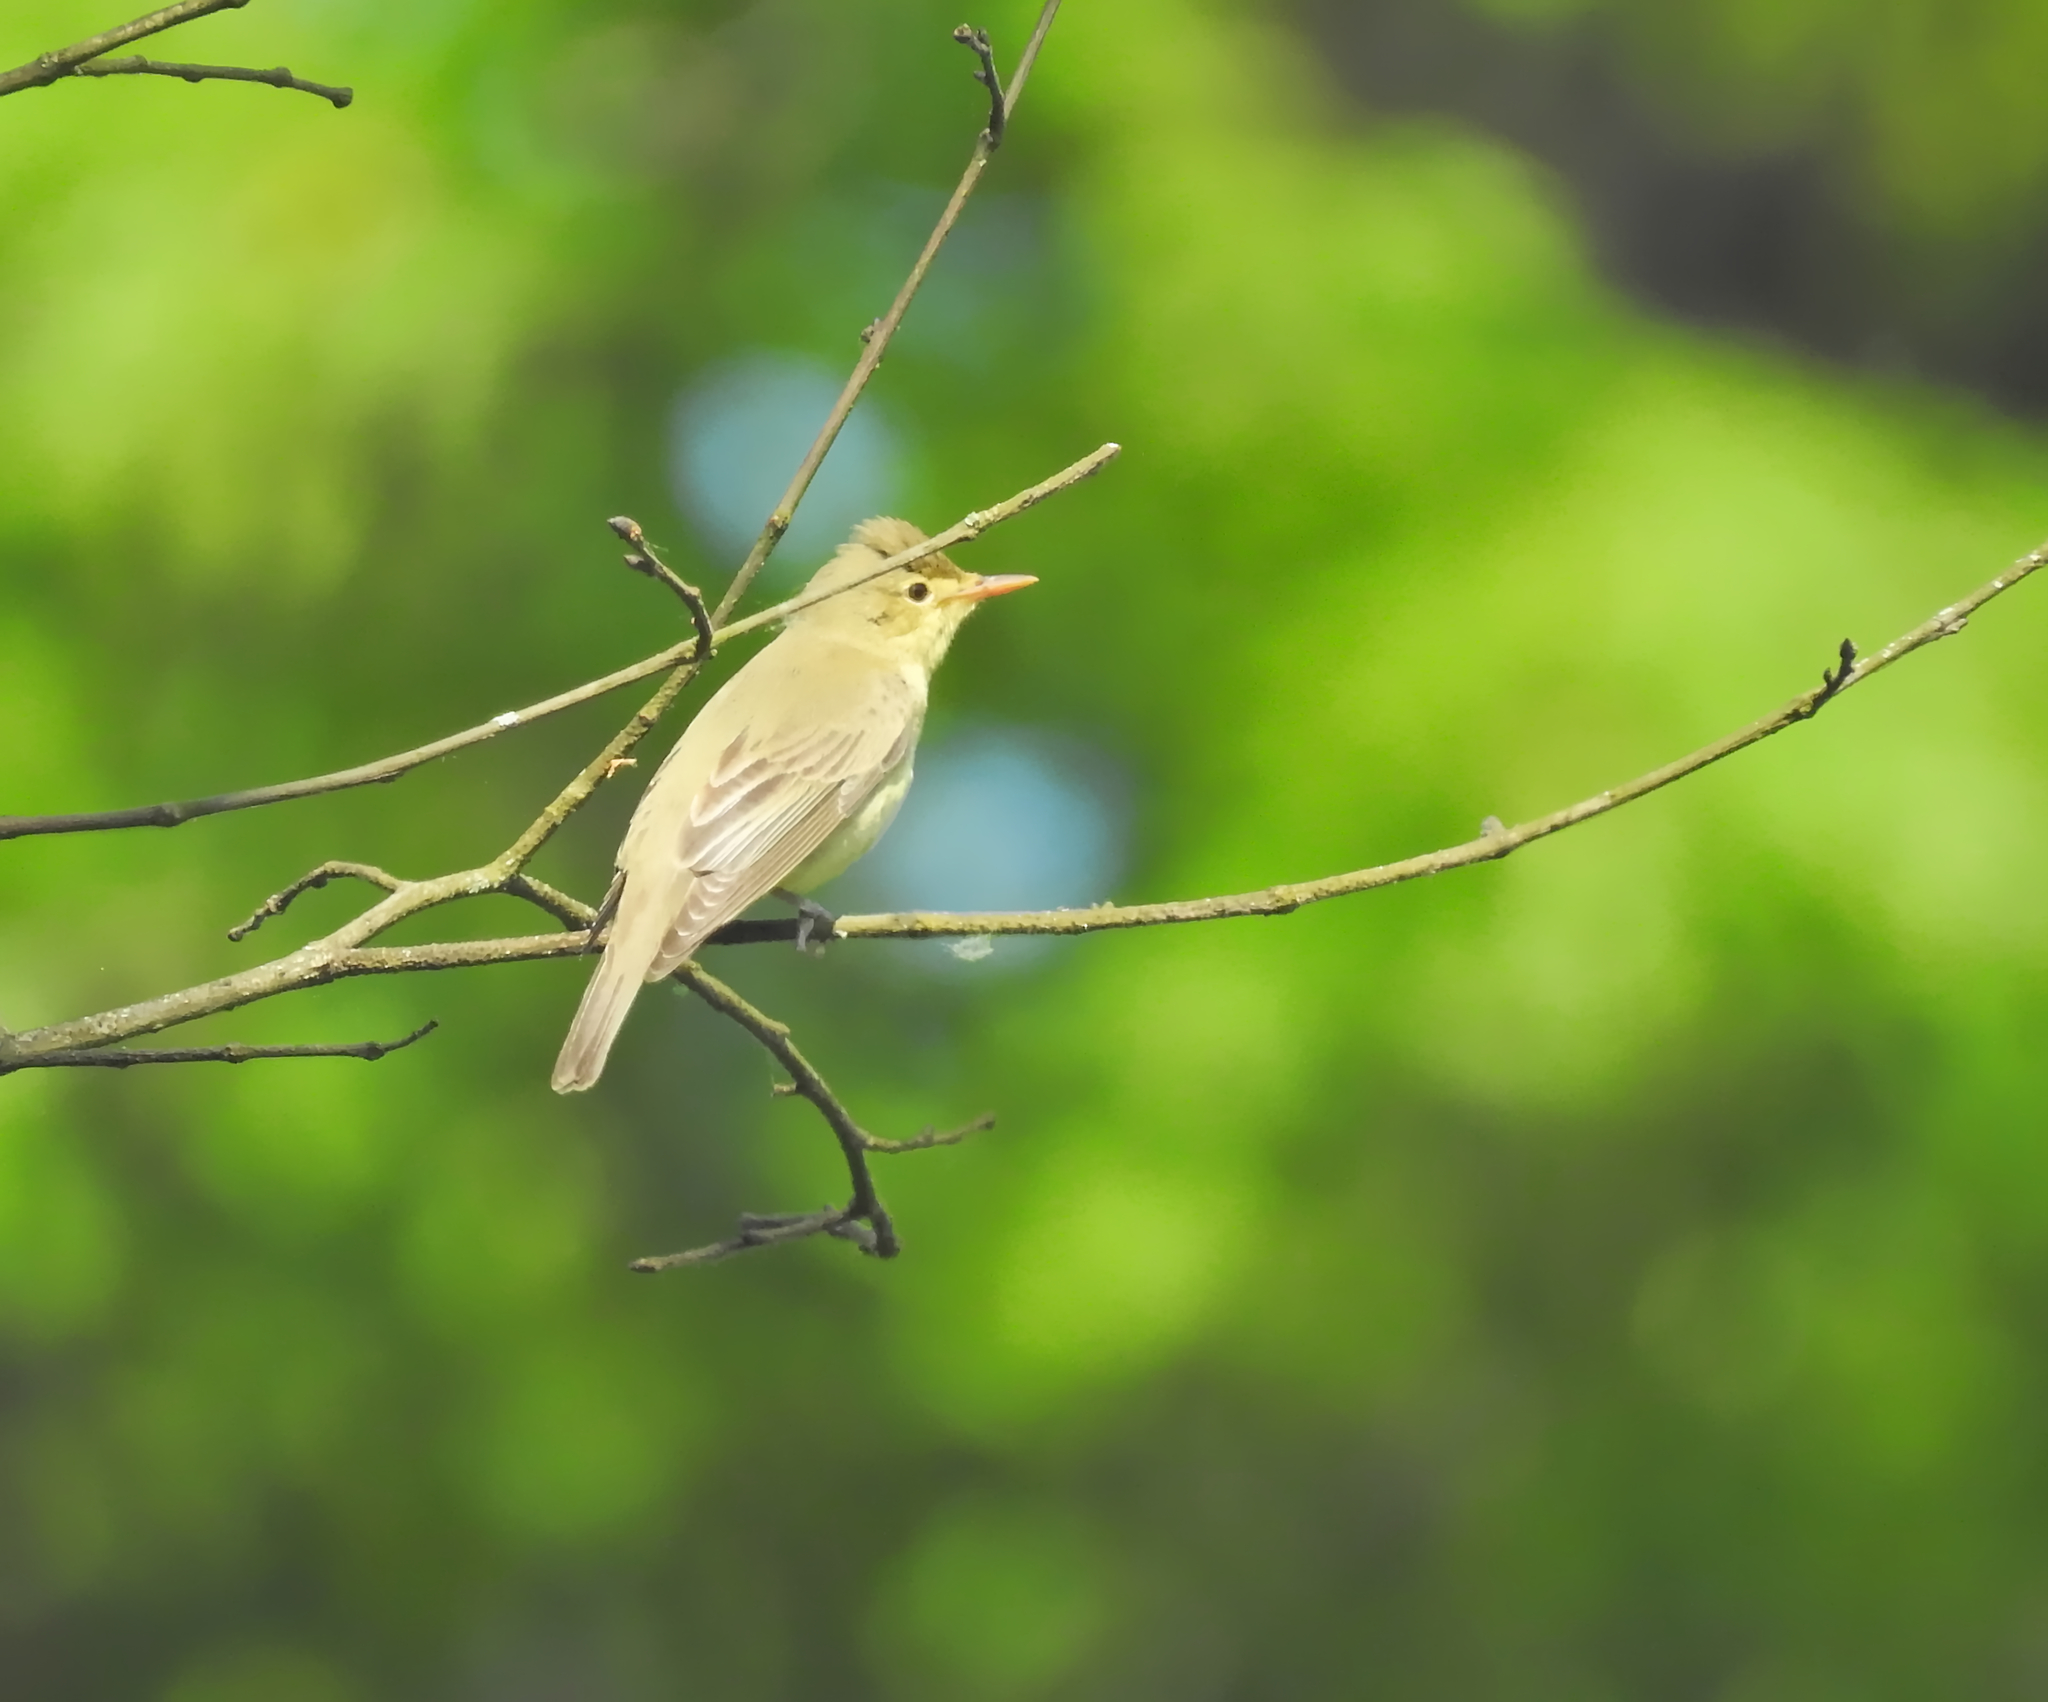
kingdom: Animalia
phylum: Chordata
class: Aves
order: Passeriformes
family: Acrocephalidae
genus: Hippolais
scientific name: Hippolais icterina
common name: Icterine warbler
